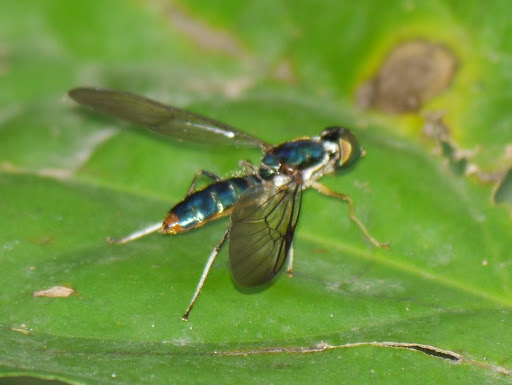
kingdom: Animalia
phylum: Arthropoda
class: Insecta
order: Diptera
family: Stratiomyidae
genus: Sagaricera
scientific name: Sagaricera analis
